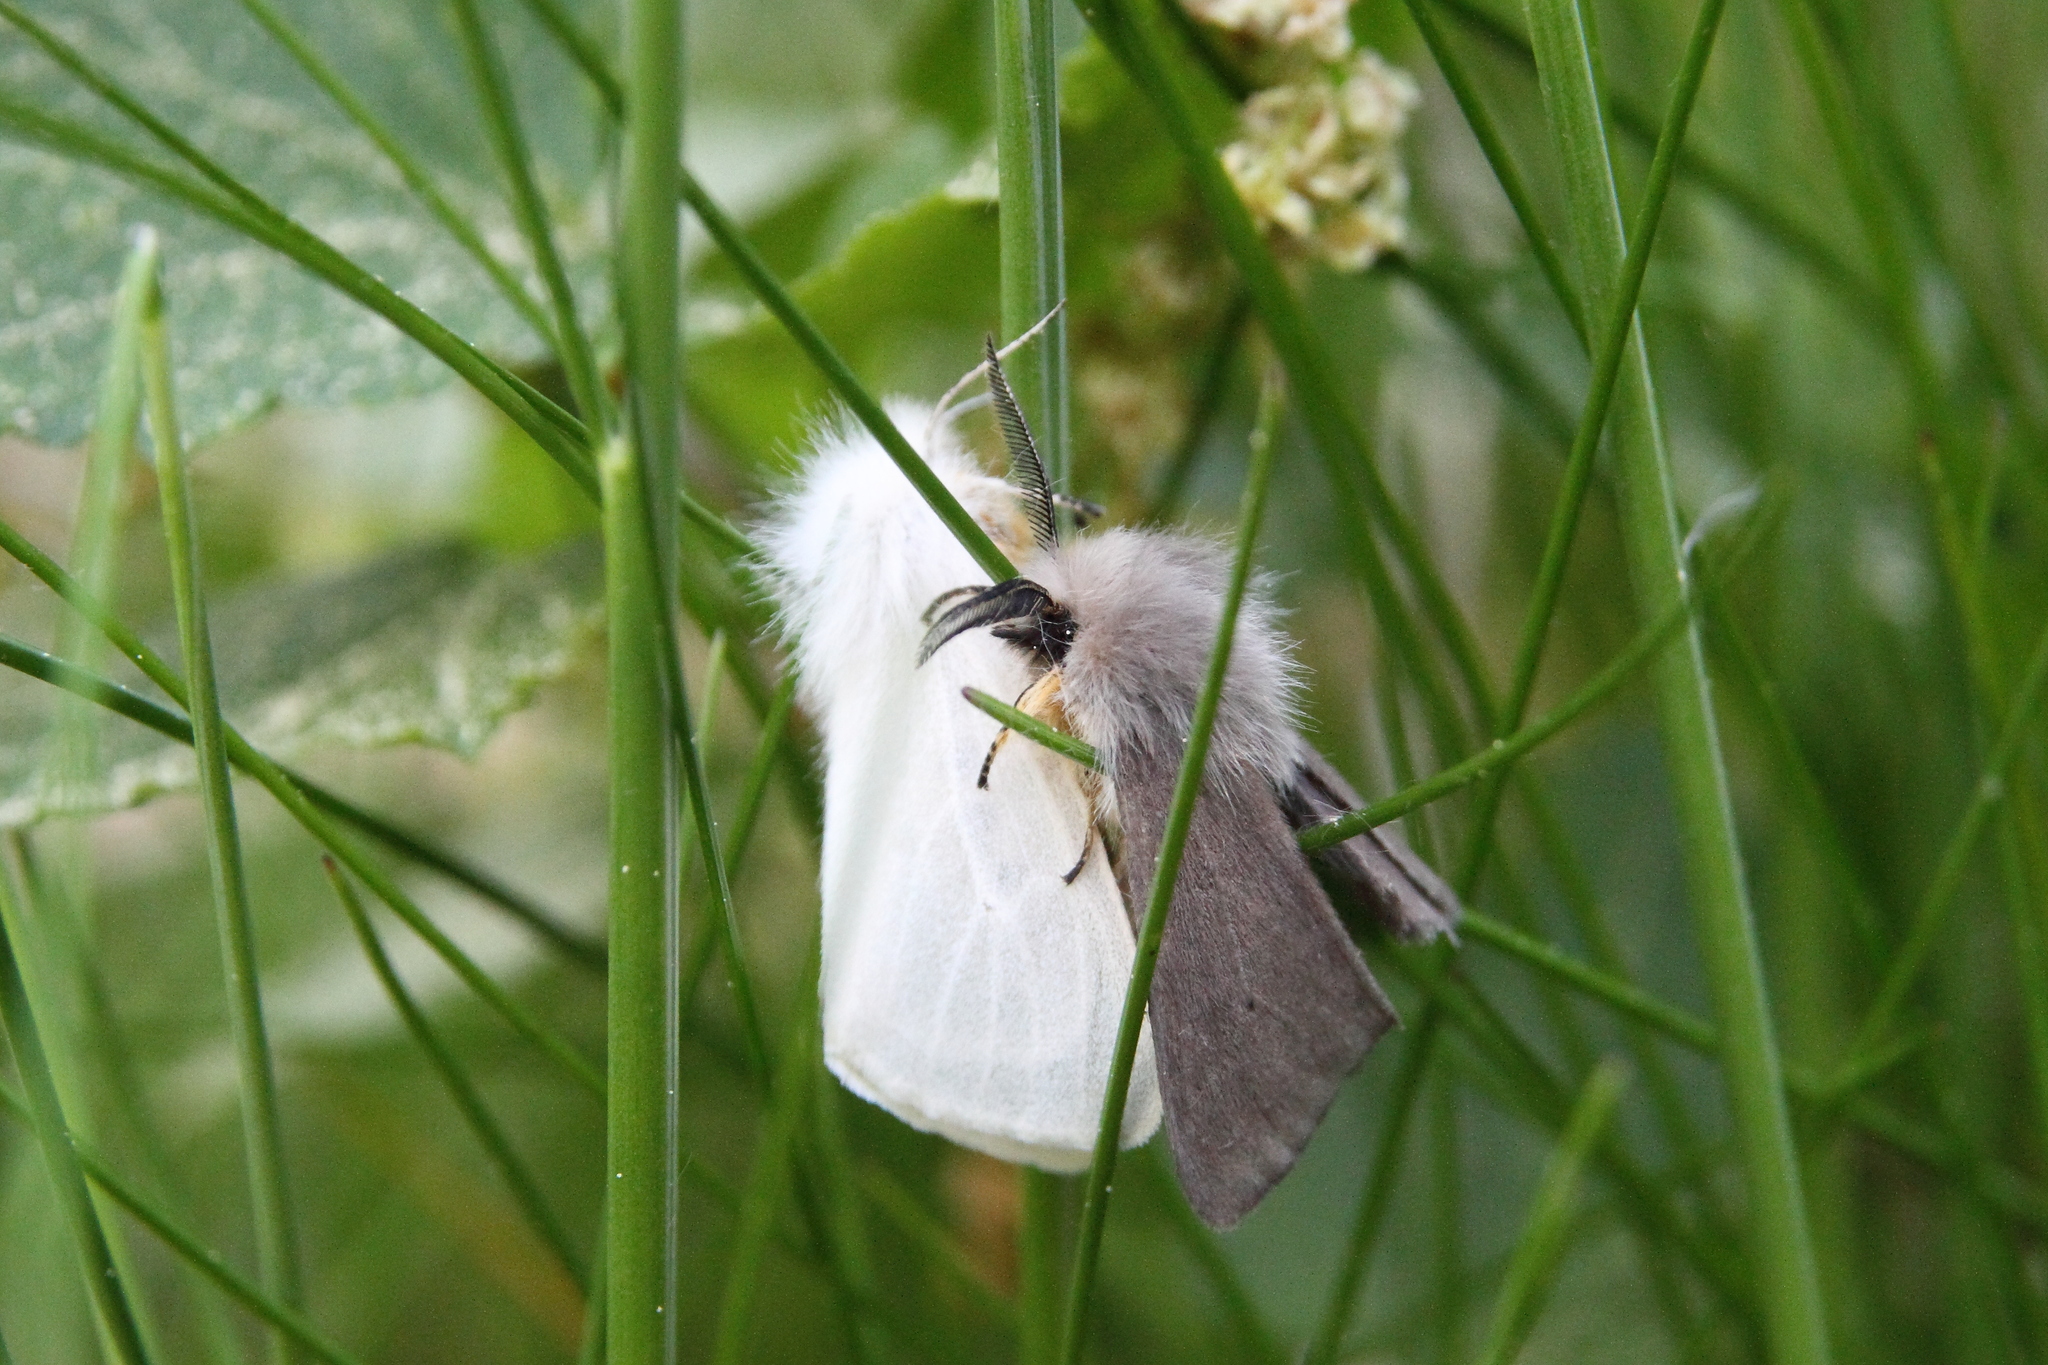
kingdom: Animalia
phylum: Arthropoda
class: Insecta
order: Lepidoptera
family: Erebidae
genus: Diaphora
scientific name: Diaphora mendica
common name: Muslin moth
